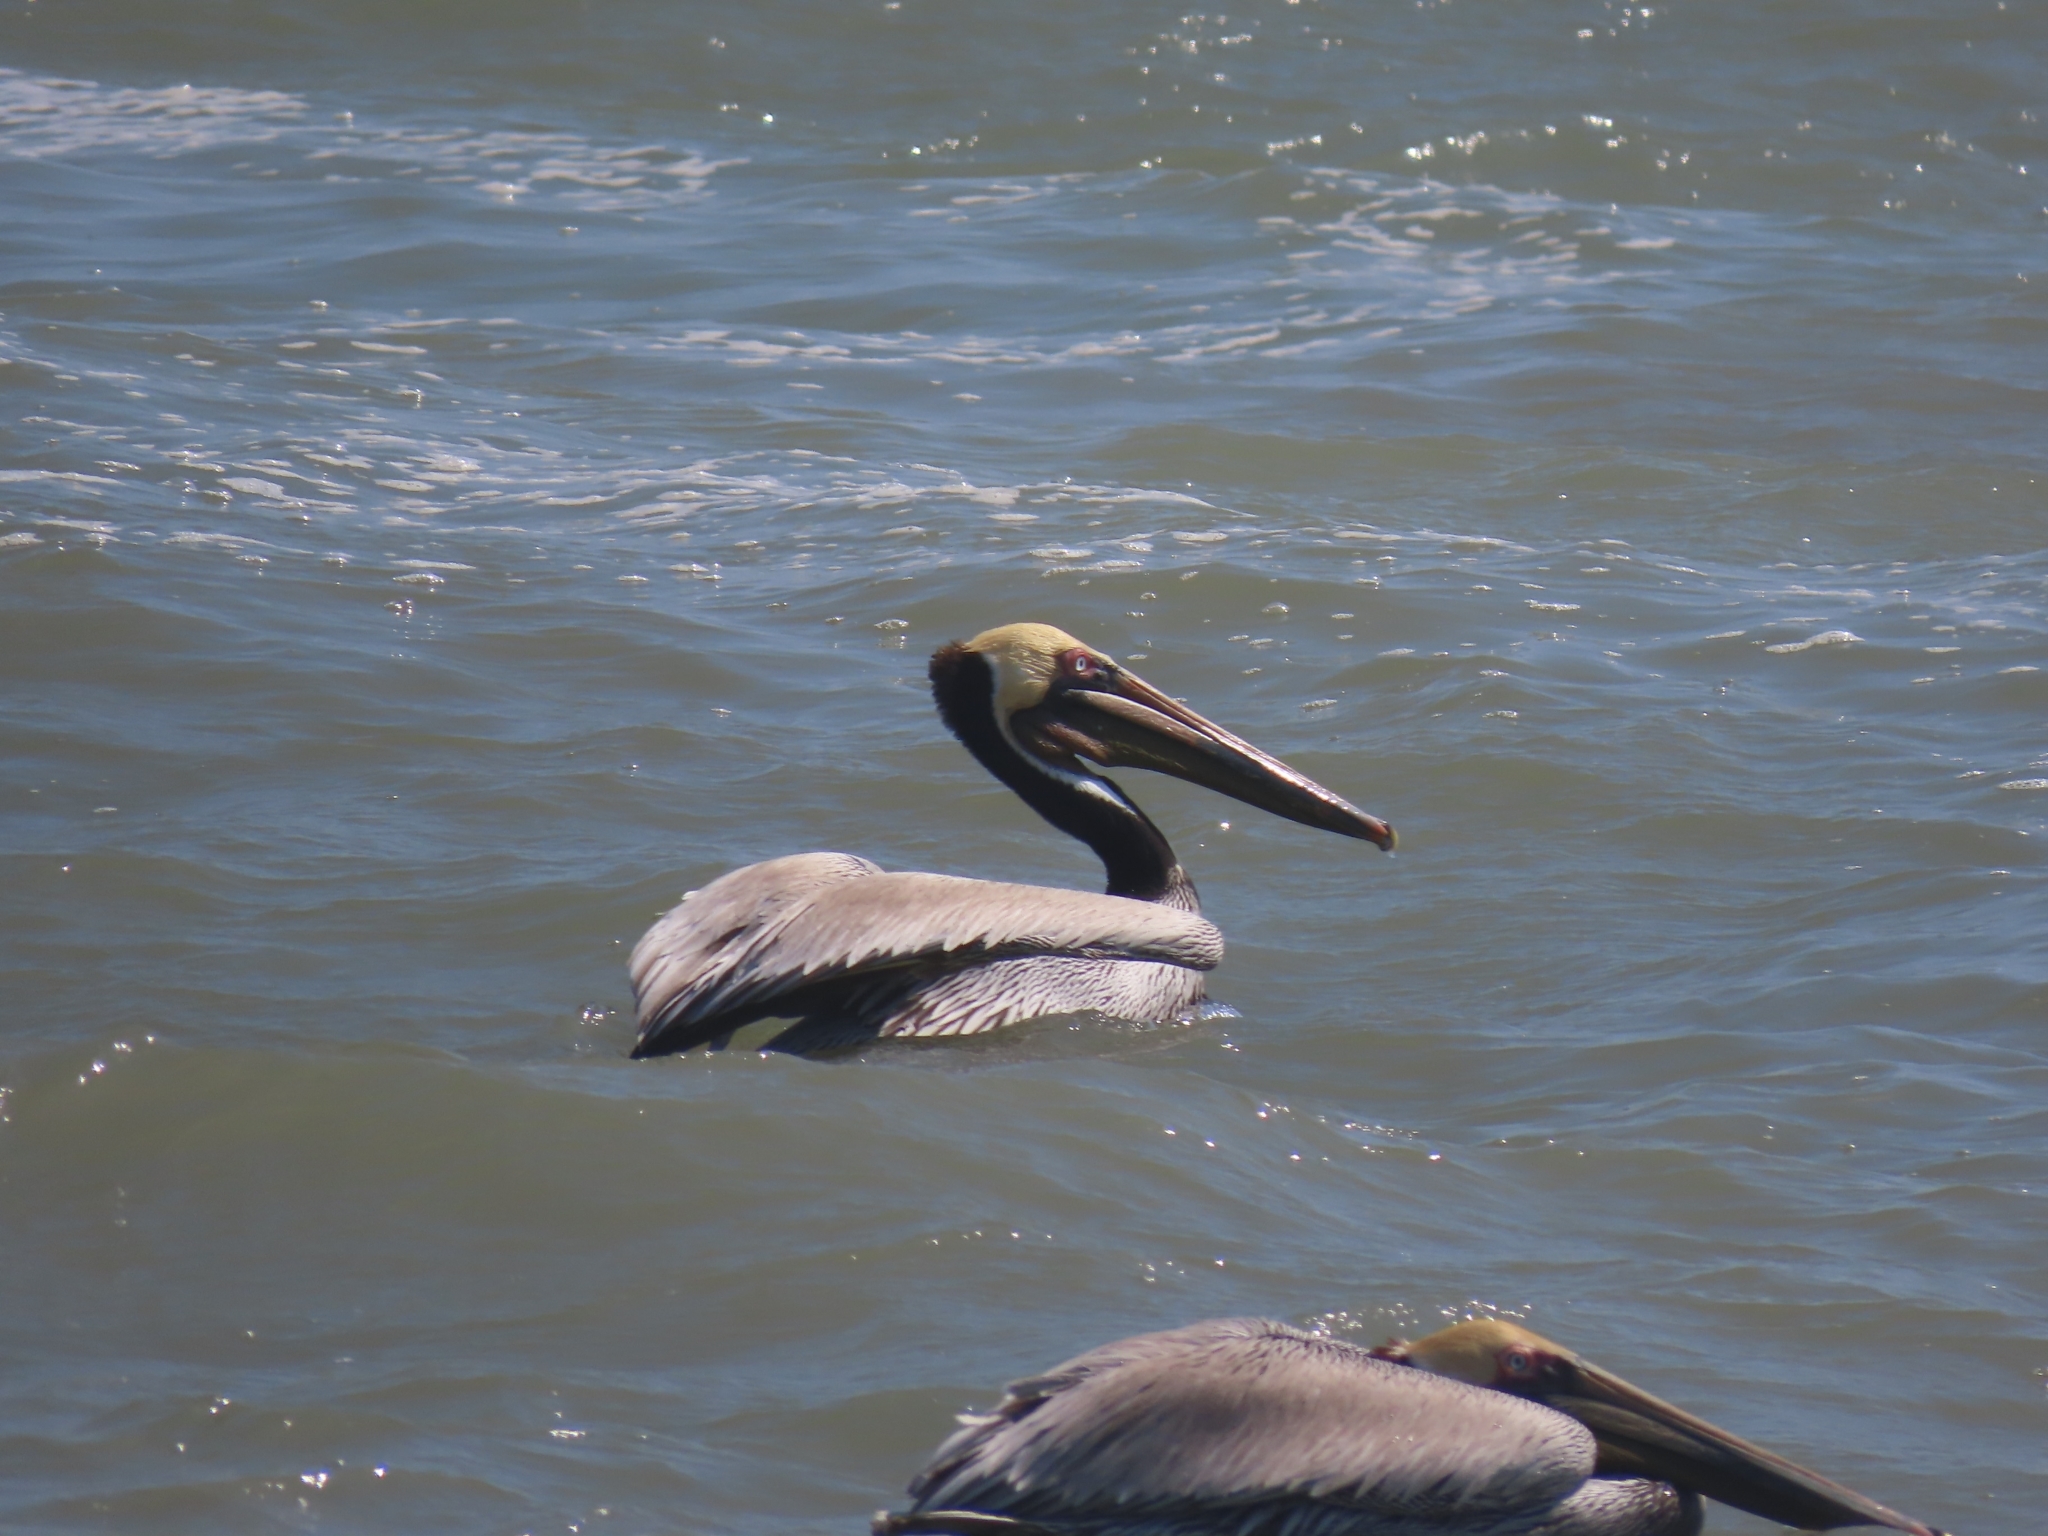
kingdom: Animalia
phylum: Chordata
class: Aves
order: Pelecaniformes
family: Pelecanidae
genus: Pelecanus
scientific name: Pelecanus occidentalis
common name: Brown pelican
